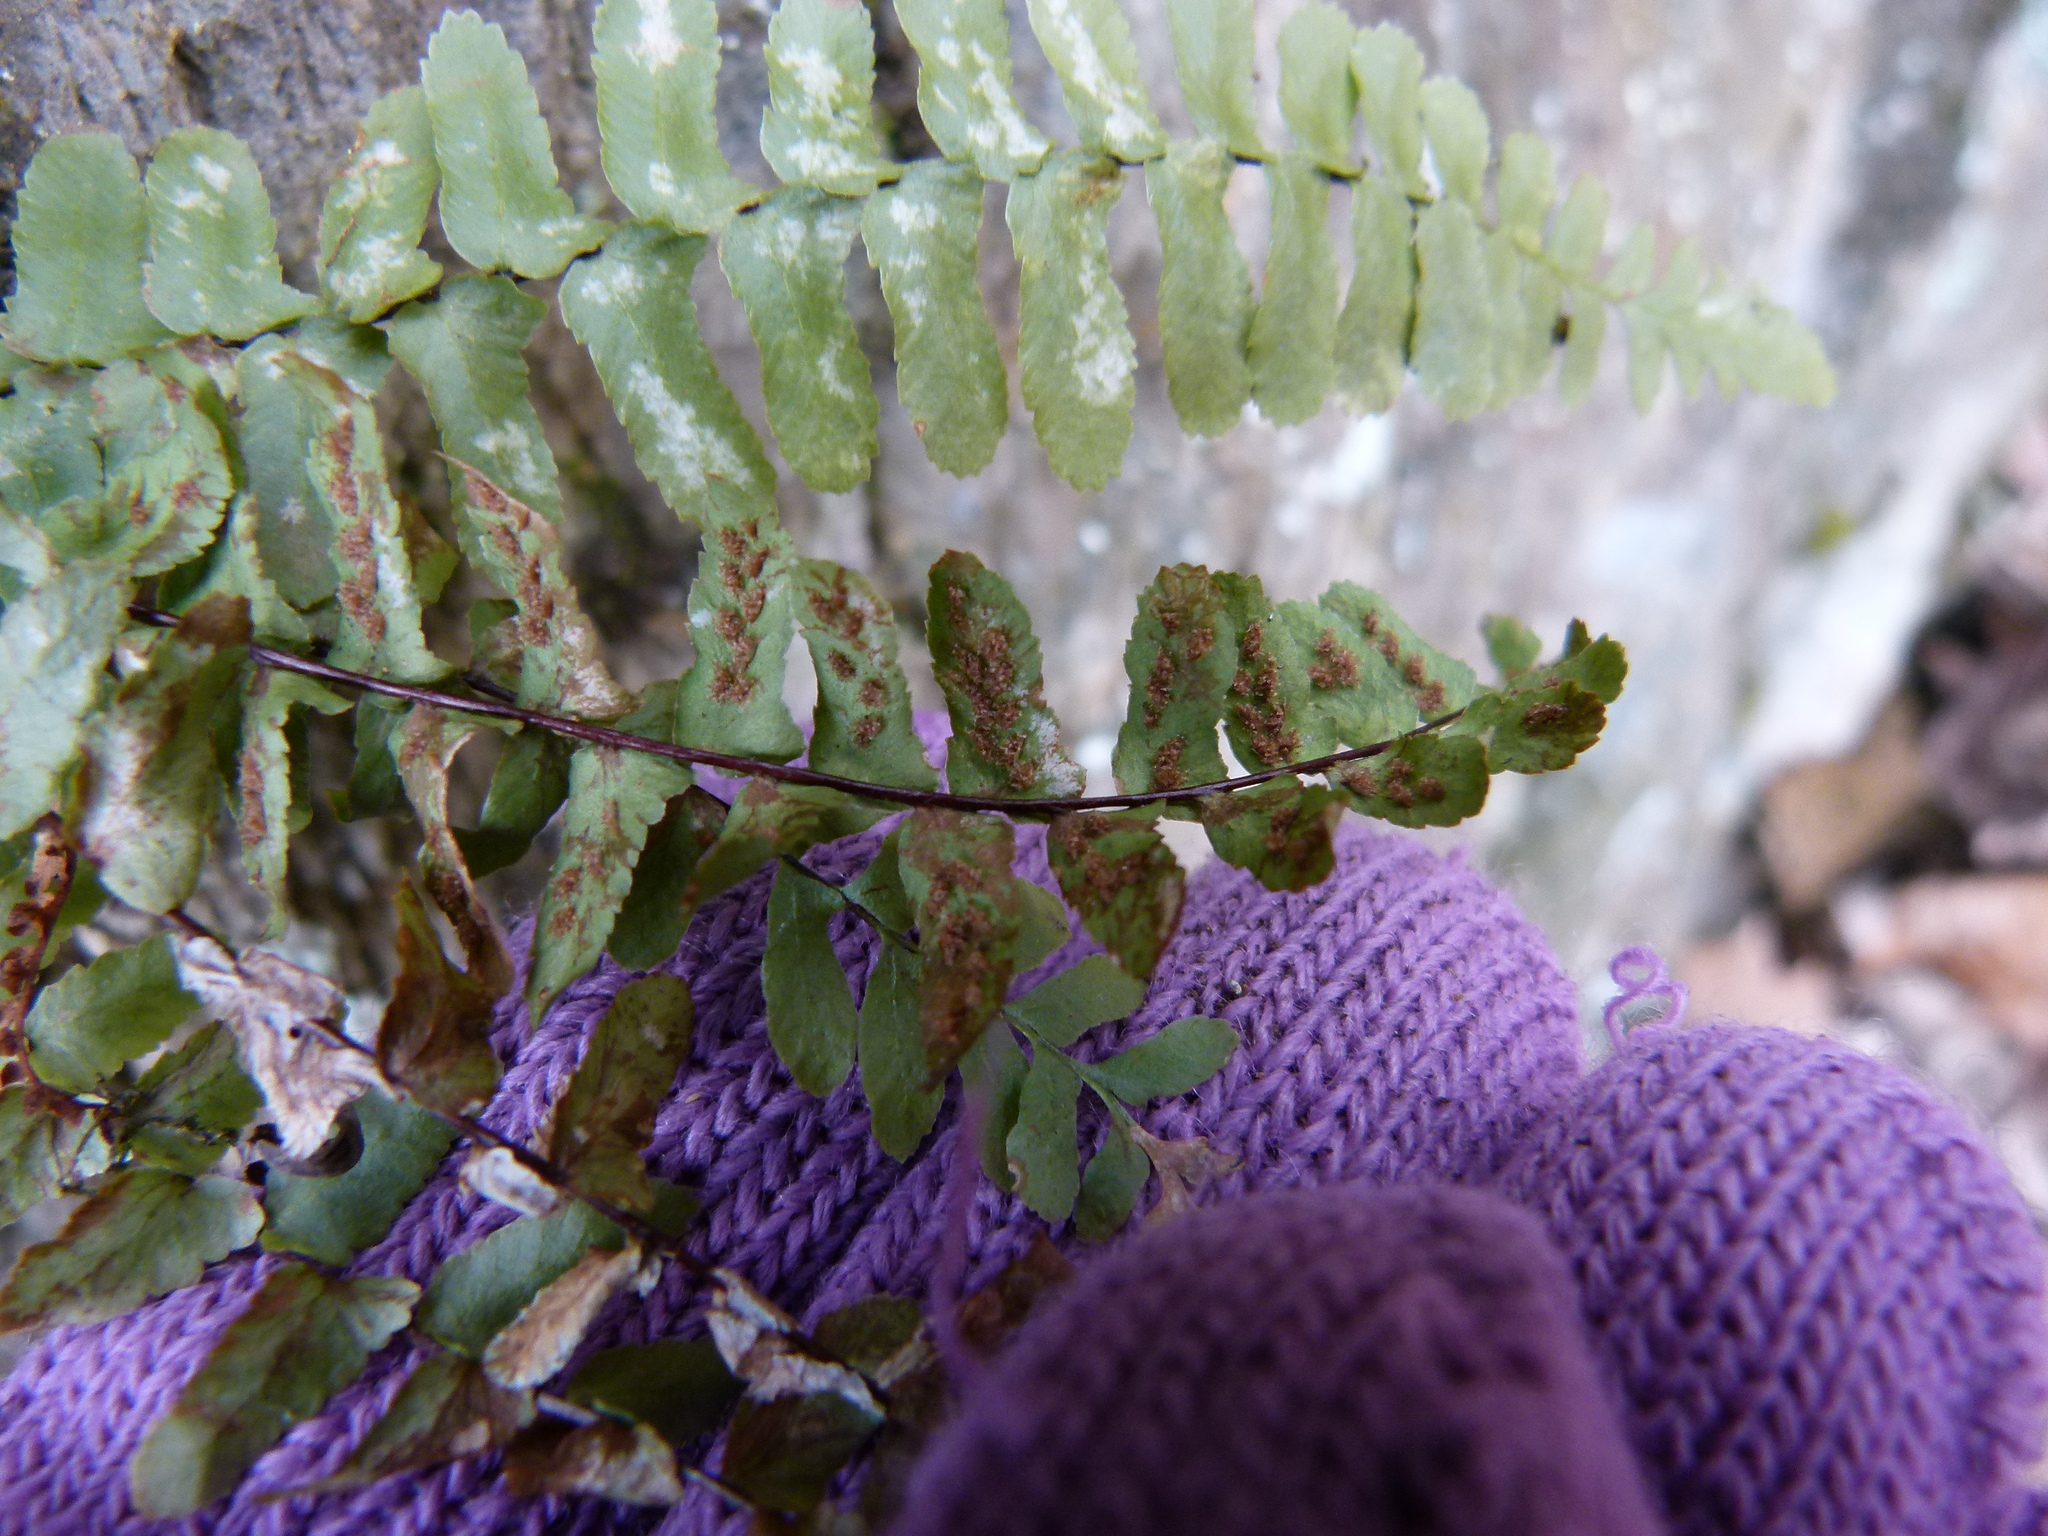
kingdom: Plantae
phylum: Tracheophyta
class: Polypodiopsida
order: Polypodiales
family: Aspleniaceae
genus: Asplenium
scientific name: Asplenium platyneuron
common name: Ebony spleenwort
